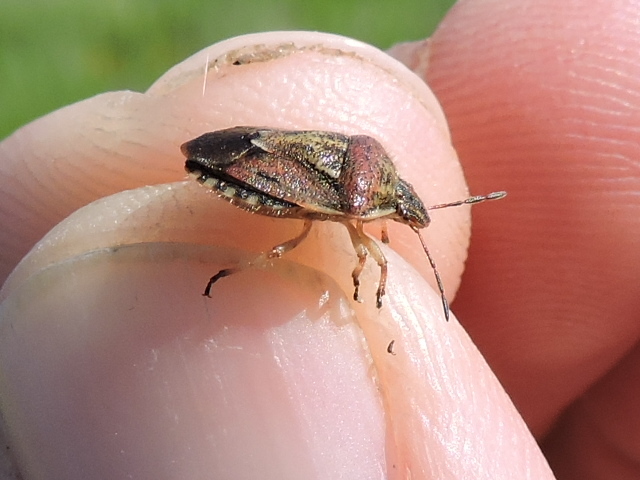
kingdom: Animalia
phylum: Arthropoda
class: Insecta
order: Hemiptera
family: Pentatomidae
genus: Trichopepla
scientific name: Trichopepla semivittata
